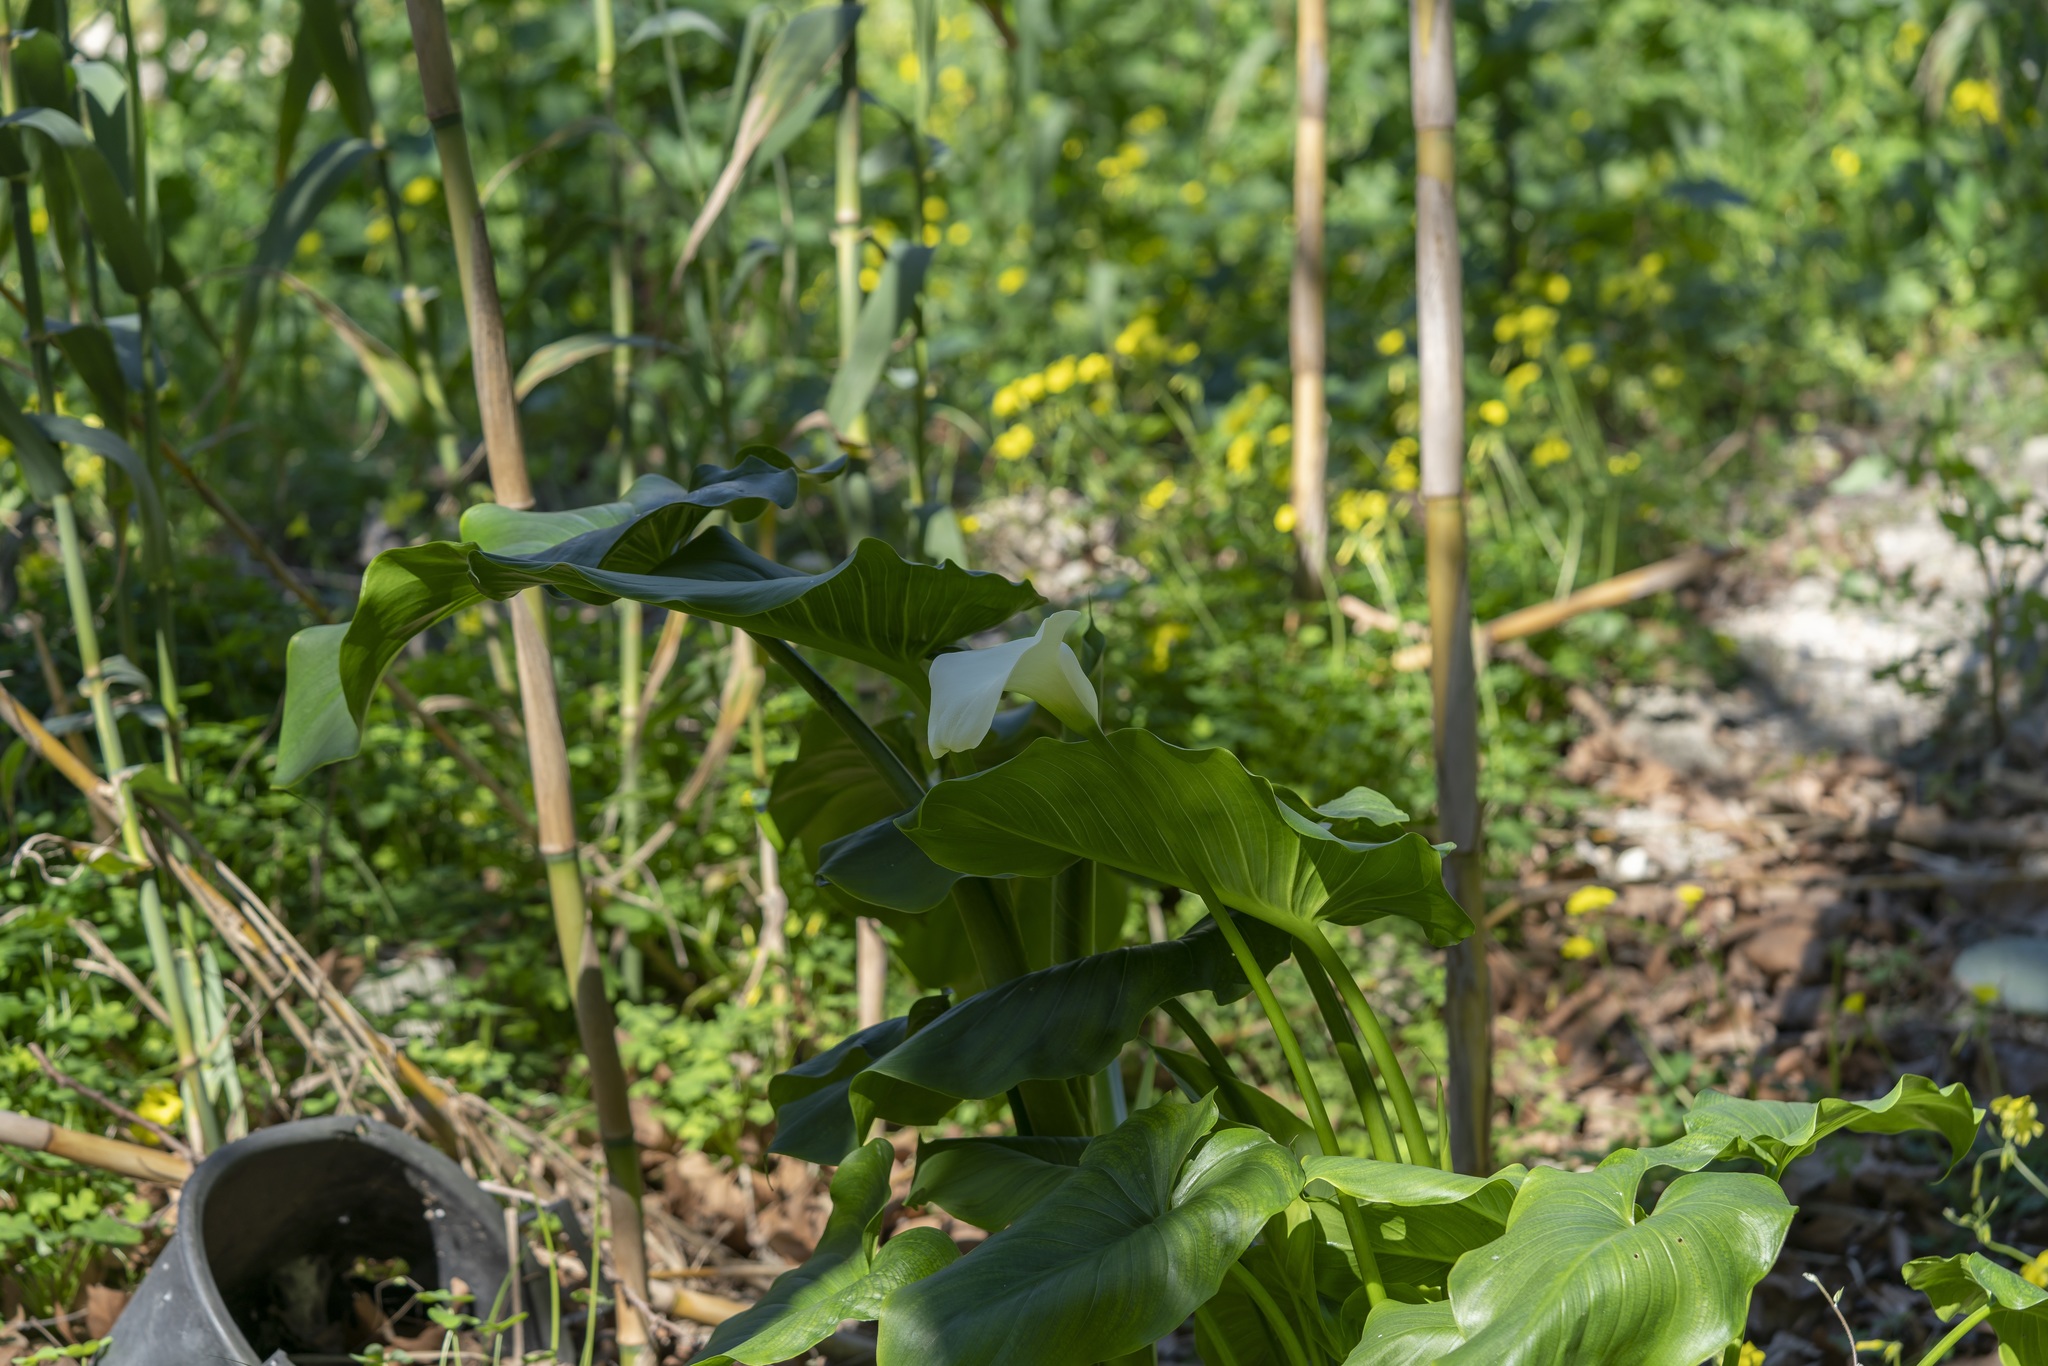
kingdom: Plantae
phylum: Tracheophyta
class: Liliopsida
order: Alismatales
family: Araceae
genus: Zantedeschia
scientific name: Zantedeschia aethiopica
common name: Altar-lily
